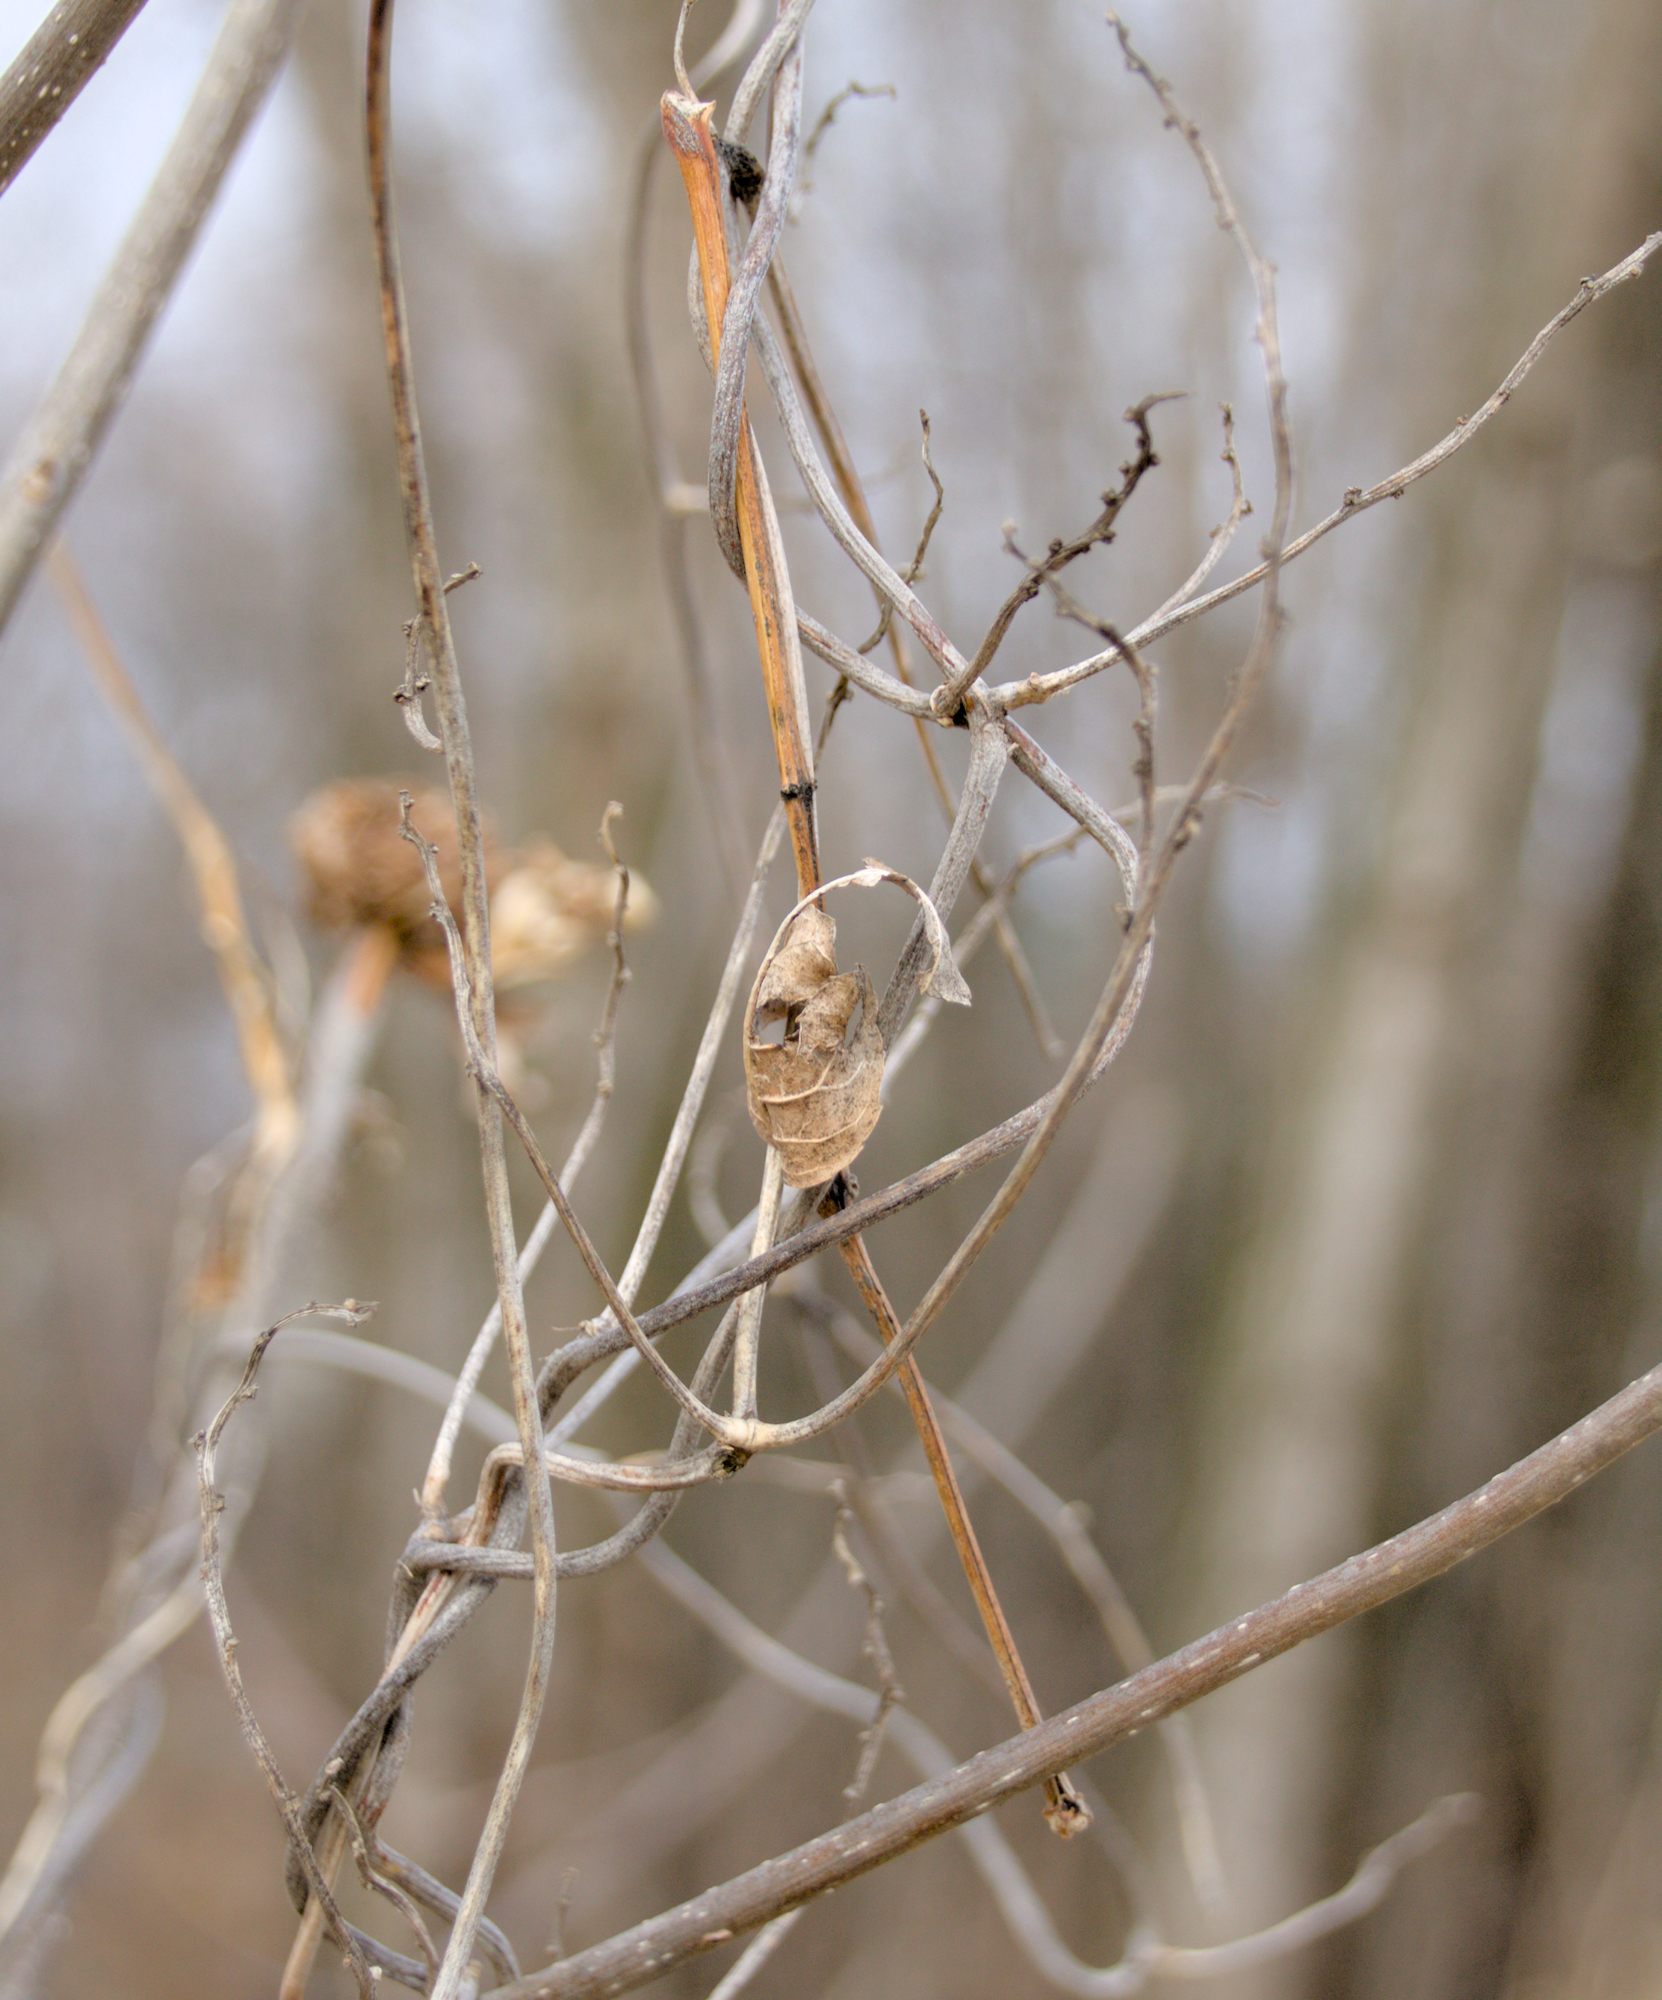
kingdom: Plantae
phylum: Tracheophyta
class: Magnoliopsida
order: Lamiales
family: Oleaceae
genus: Fraxinus
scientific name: Fraxinus pennsylvanica
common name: Green ash
